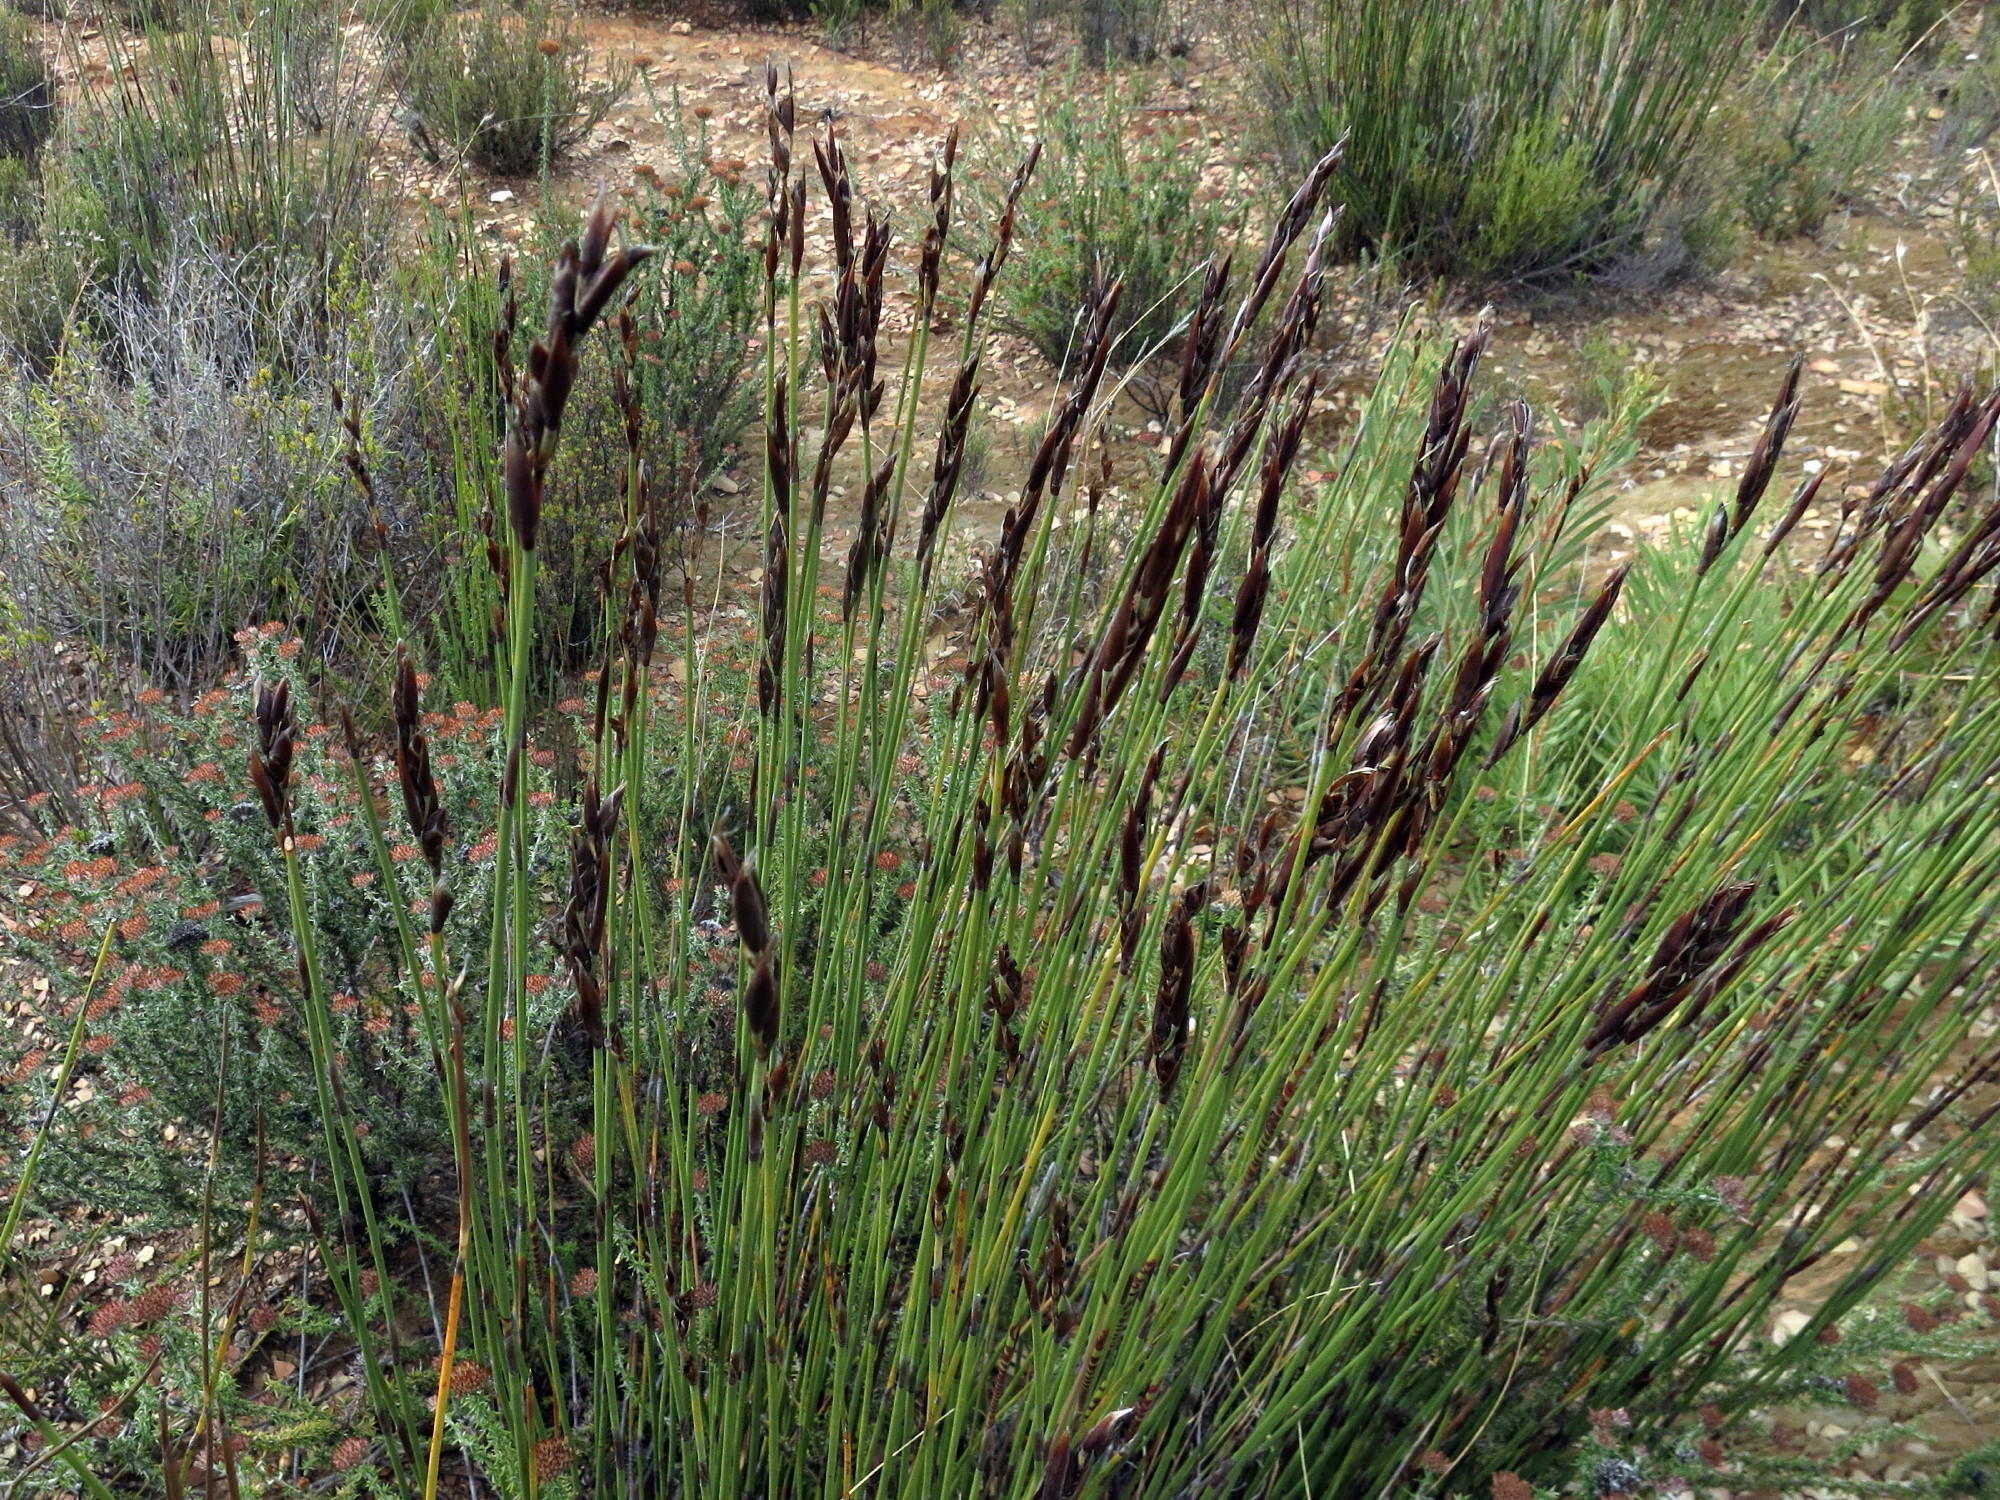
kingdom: Plantae
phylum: Tracheophyta
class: Liliopsida
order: Poales
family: Restionaceae
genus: Cannomois
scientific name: Cannomois scirpoides
